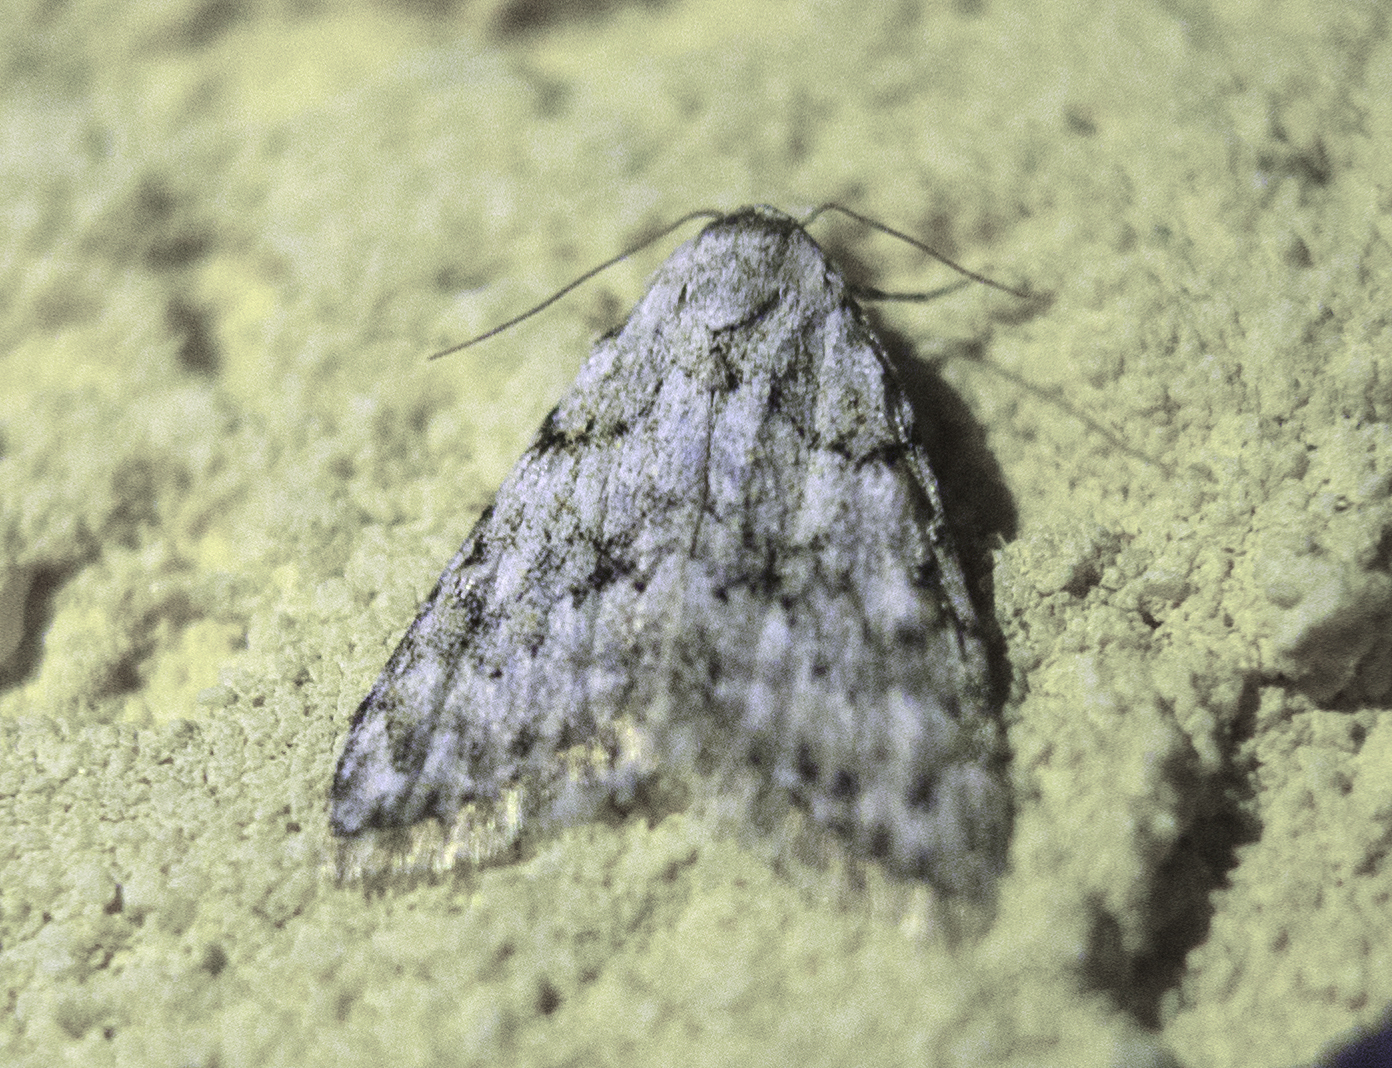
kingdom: Animalia
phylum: Arthropoda
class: Insecta
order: Lepidoptera
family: Nolidae
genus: Nola
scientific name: Nola cicatricalis
